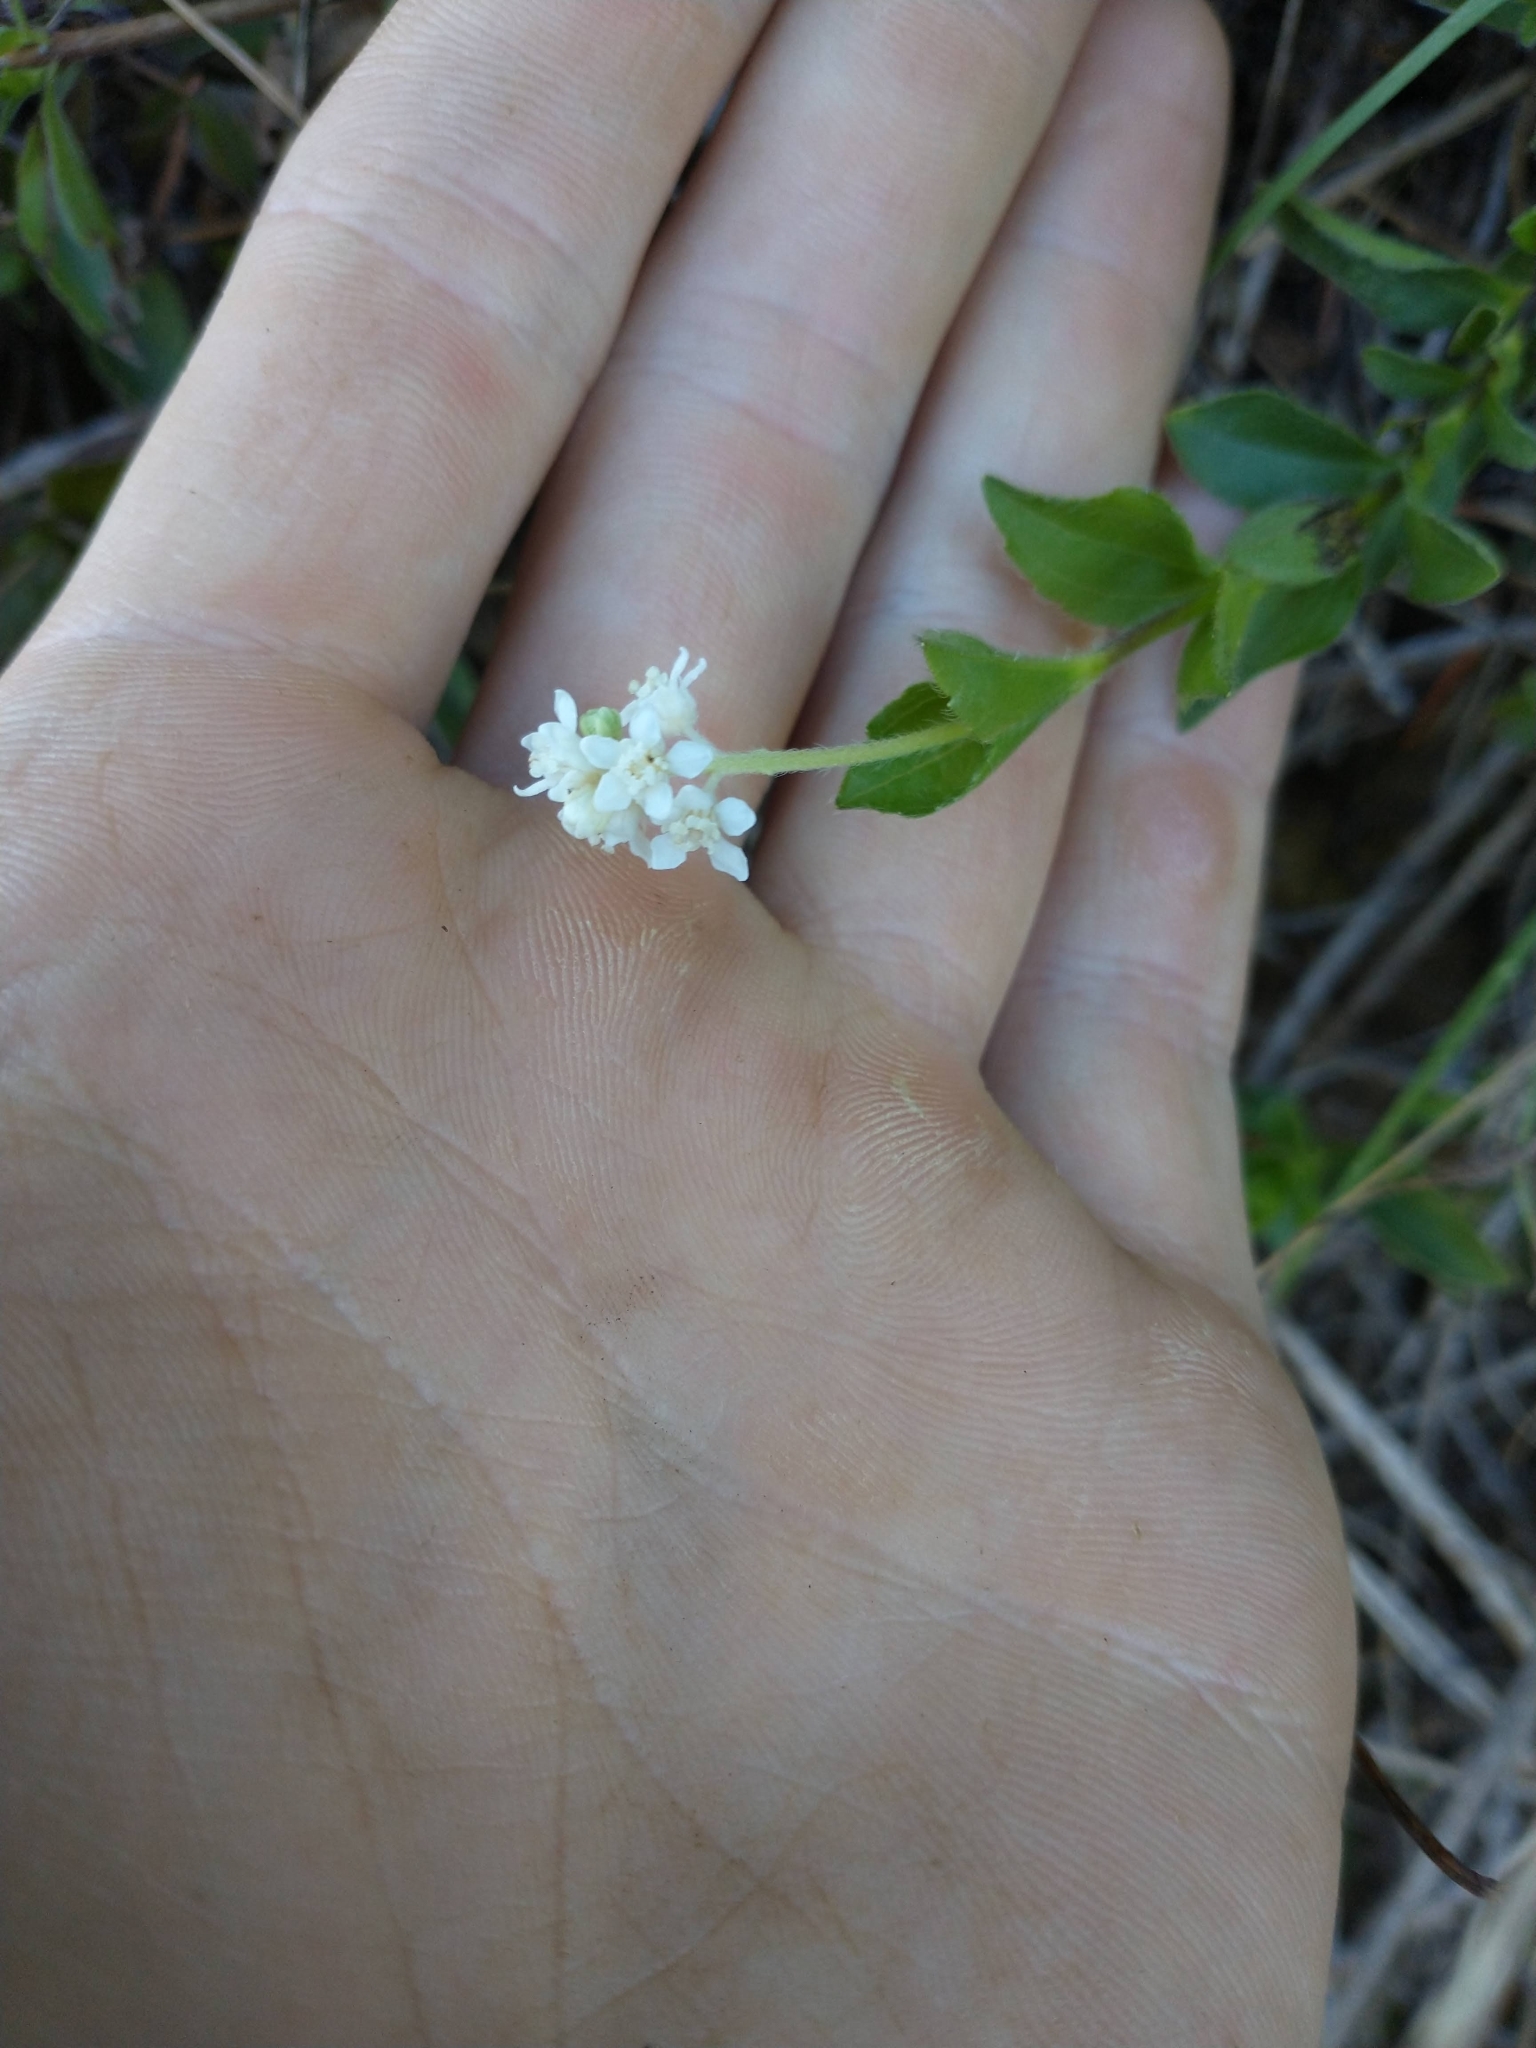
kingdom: Plantae
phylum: Tracheophyta
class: Magnoliopsida
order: Cornales
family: Hydrangeaceae
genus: Whipplea
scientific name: Whipplea modesta
